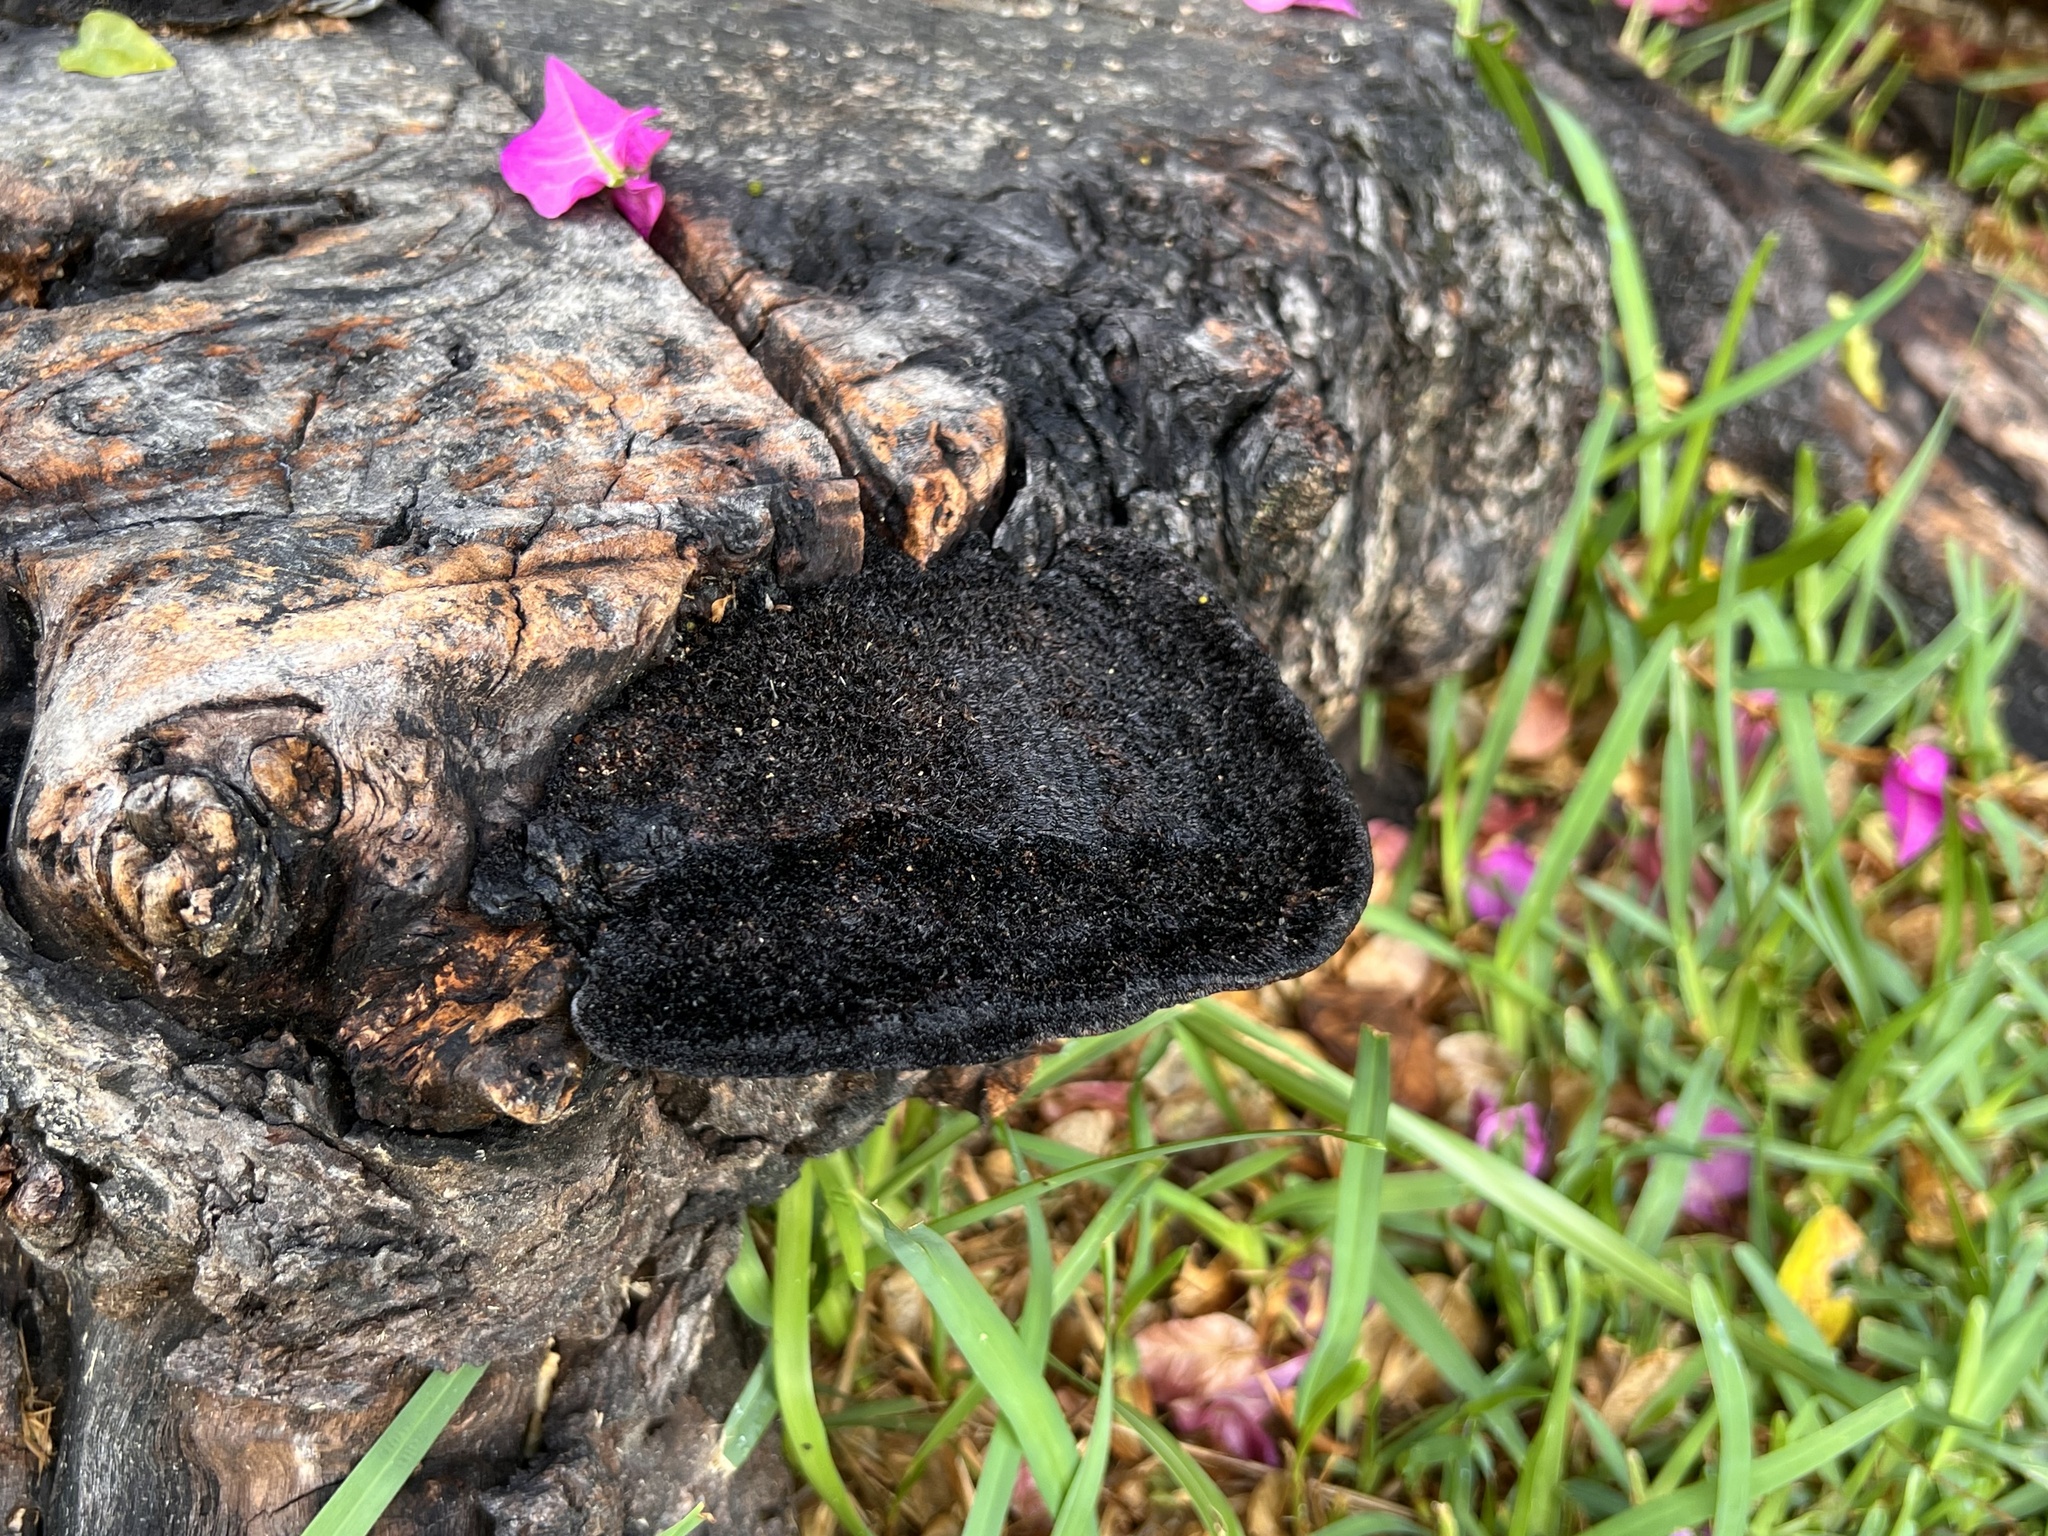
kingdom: Fungi
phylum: Basidiomycota
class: Agaricomycetes
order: Polyporales
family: Cerrenaceae
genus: Cerrena
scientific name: Cerrena hydnoides
